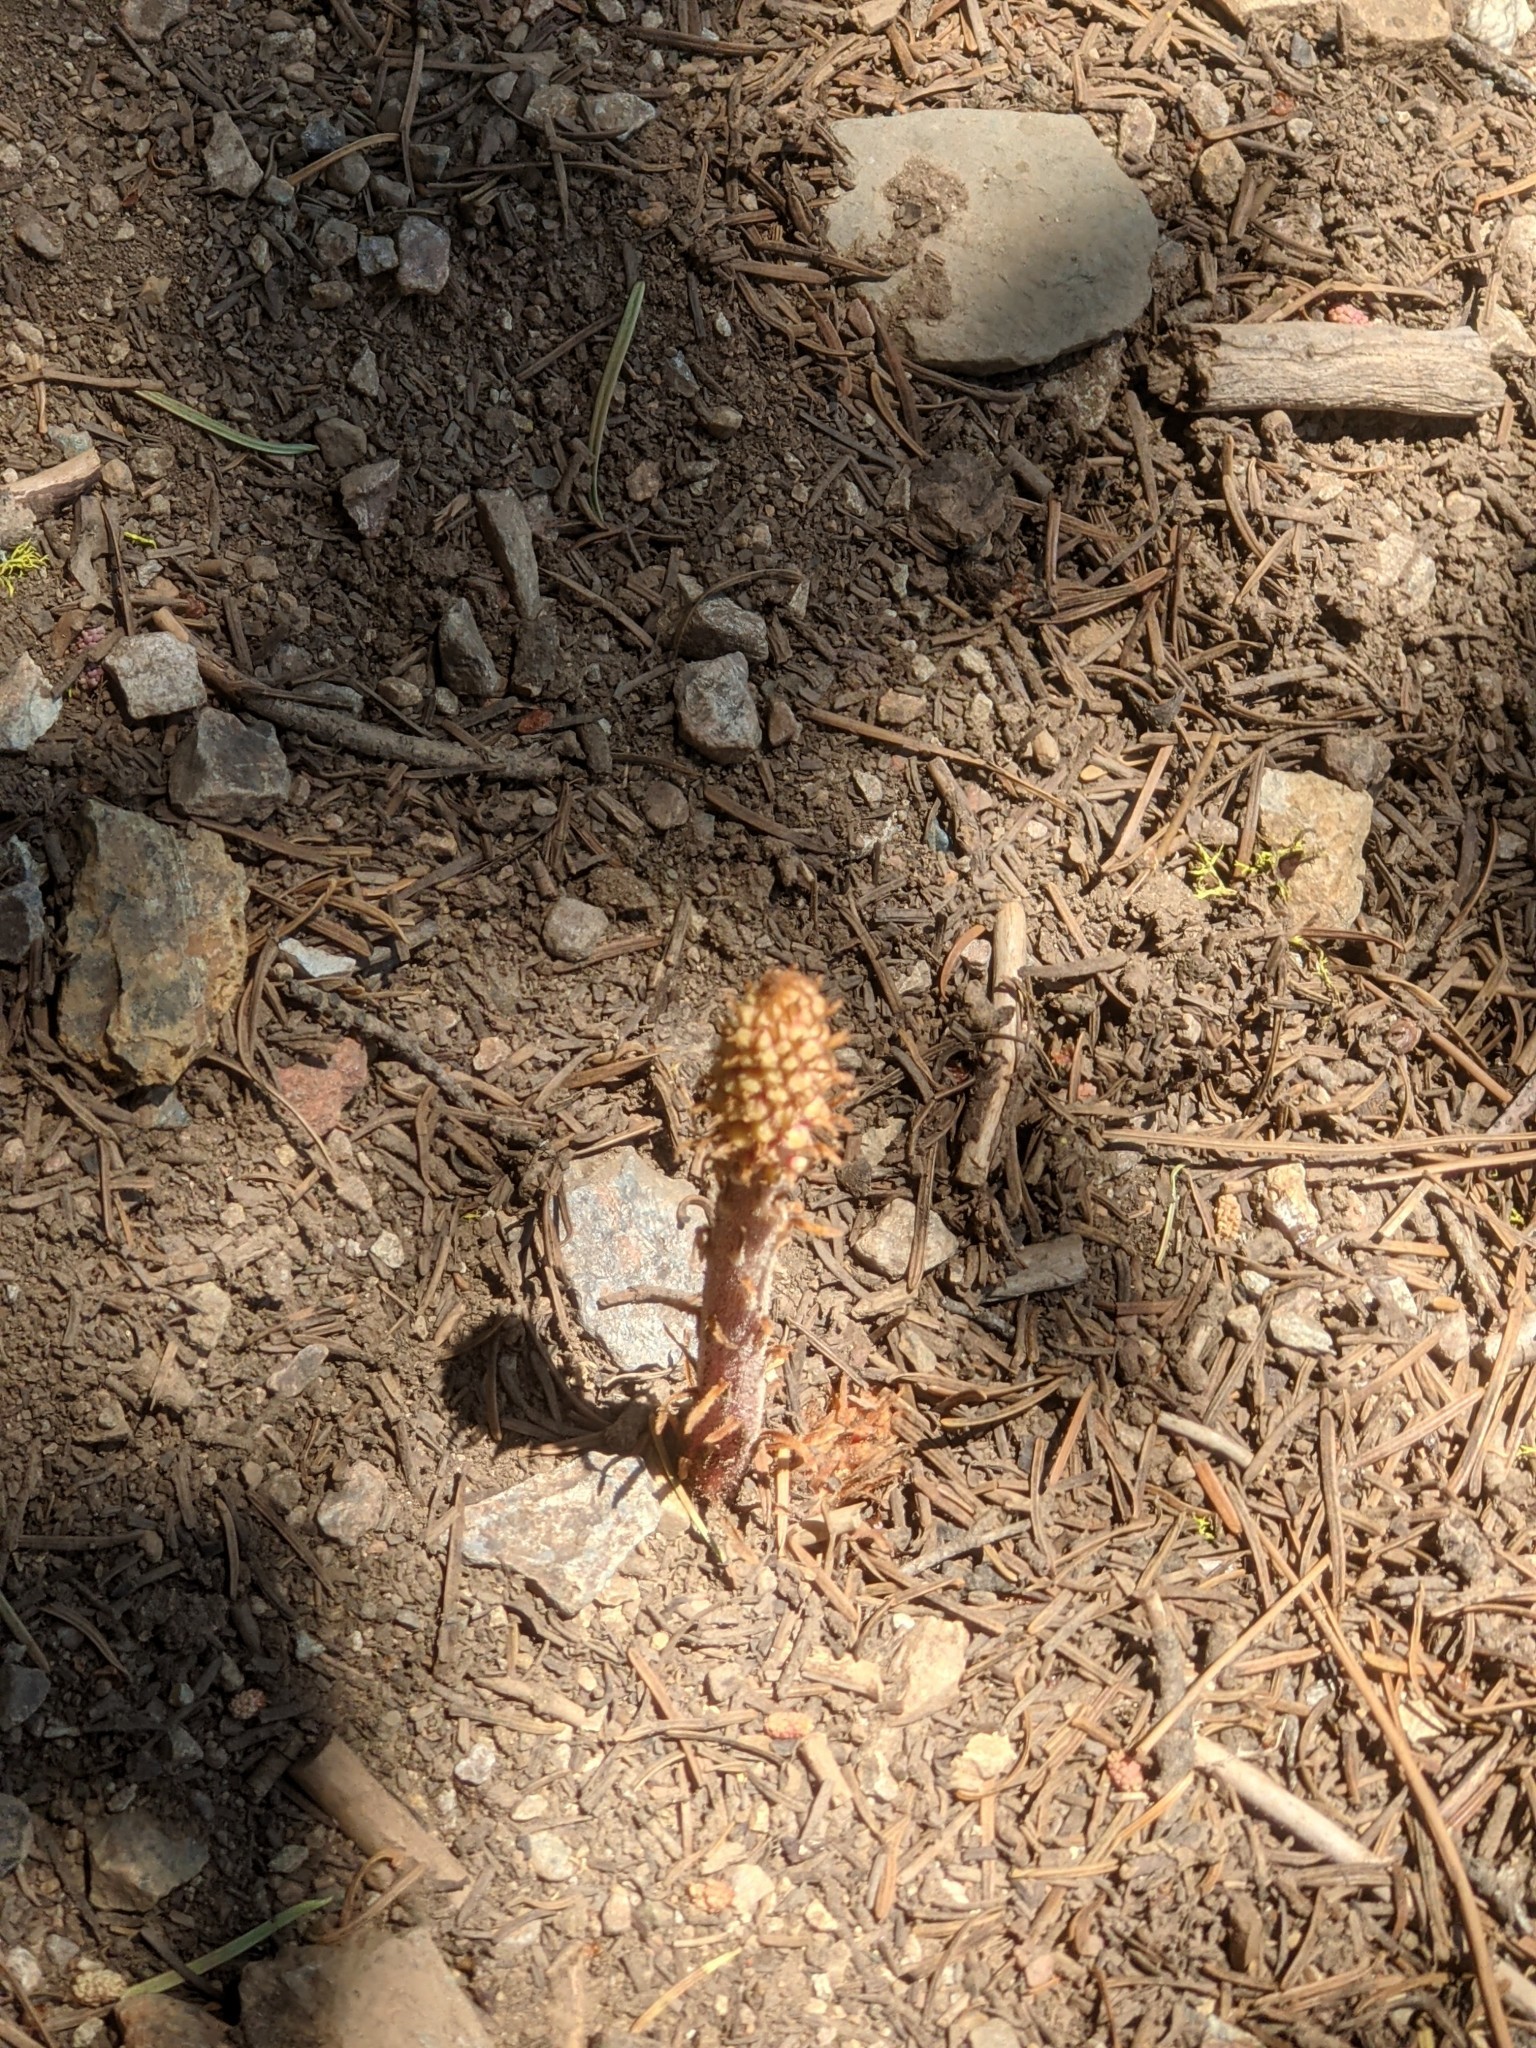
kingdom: Plantae
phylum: Tracheophyta
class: Magnoliopsida
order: Ericales
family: Ericaceae
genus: Pterospora
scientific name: Pterospora andromedea
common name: Giant bird's-nest
